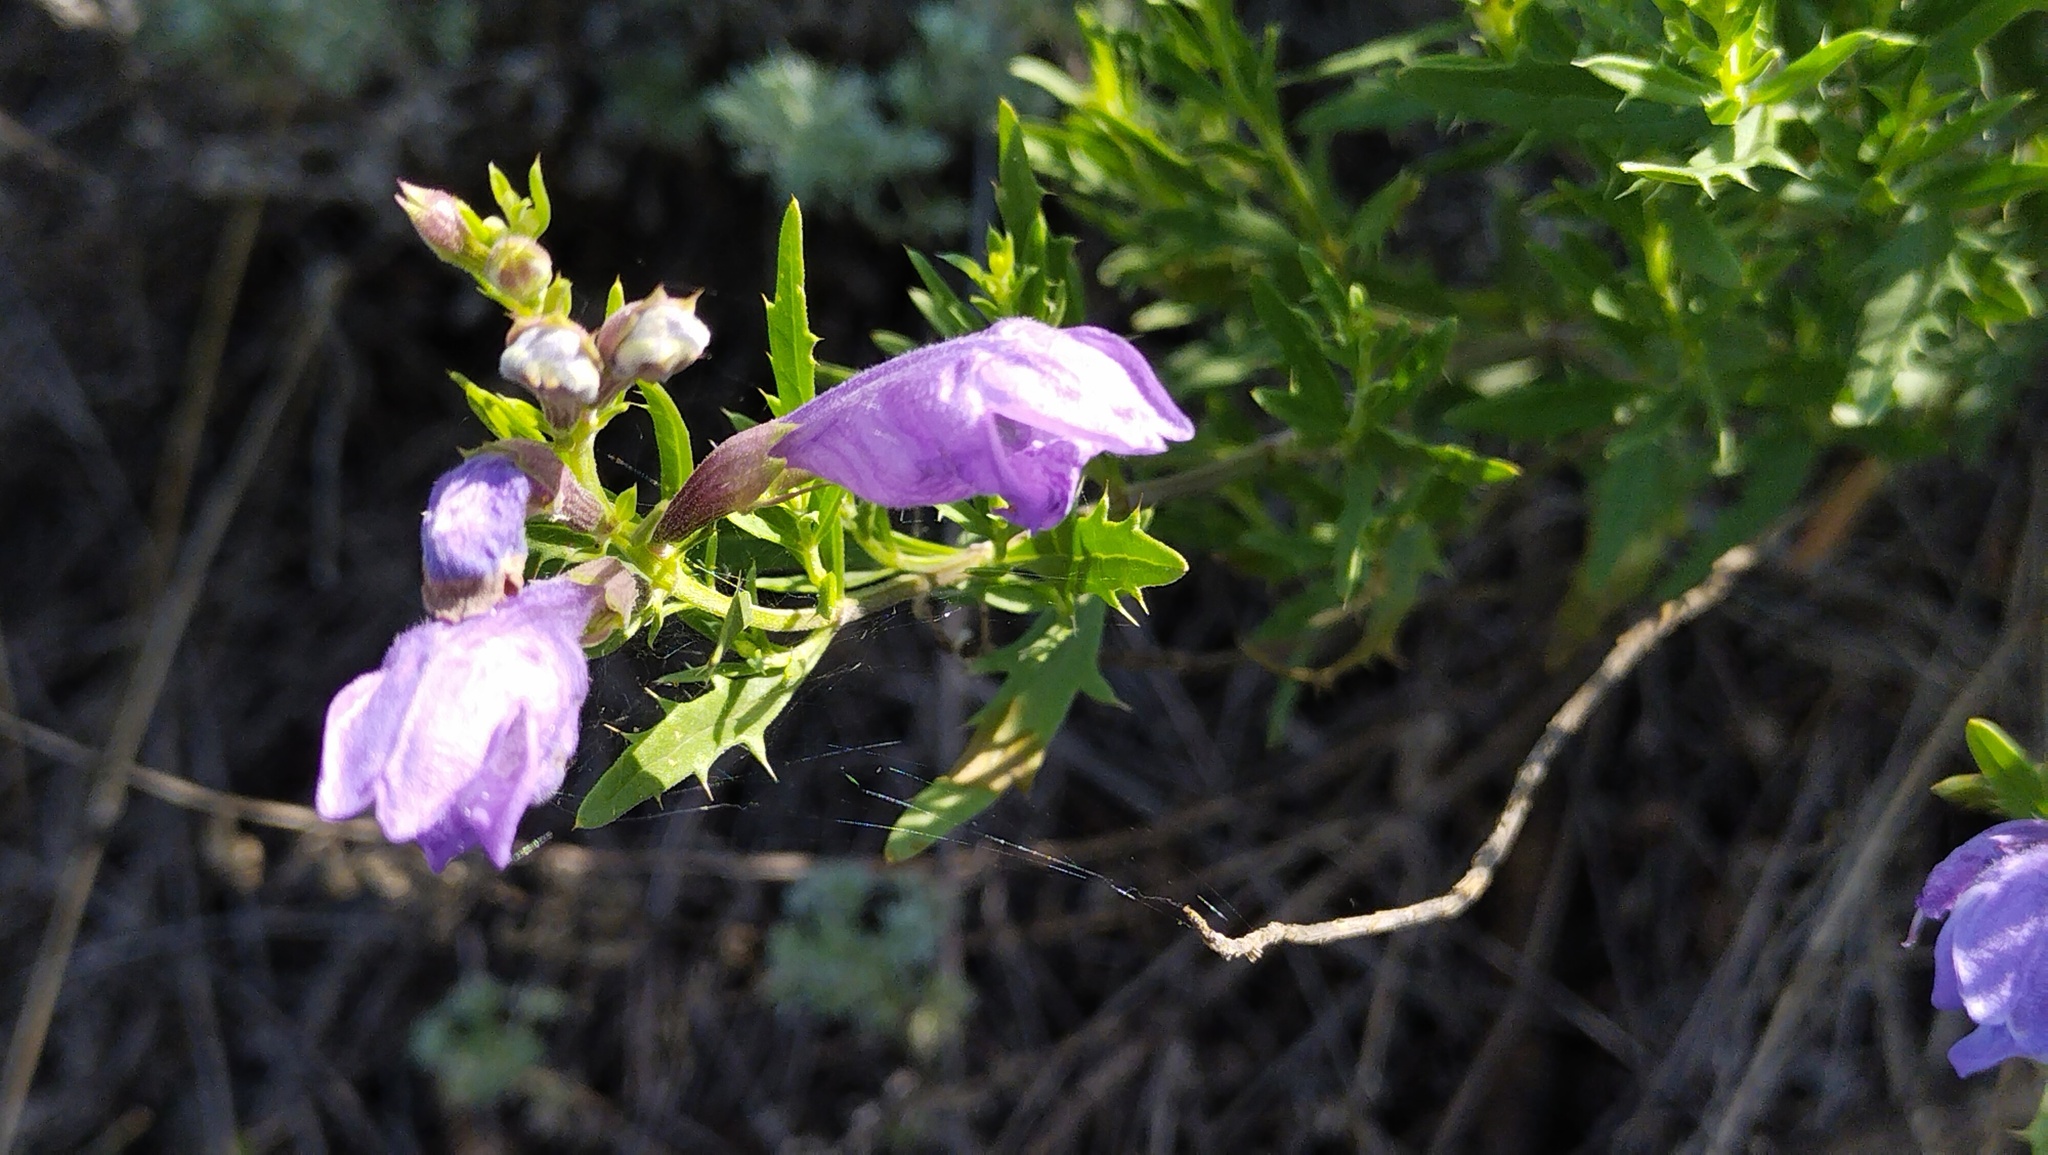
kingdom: Plantae
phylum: Tracheophyta
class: Magnoliopsida
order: Lamiales
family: Lamiaceae
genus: Dracocephalum
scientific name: Dracocephalum peregrinum
